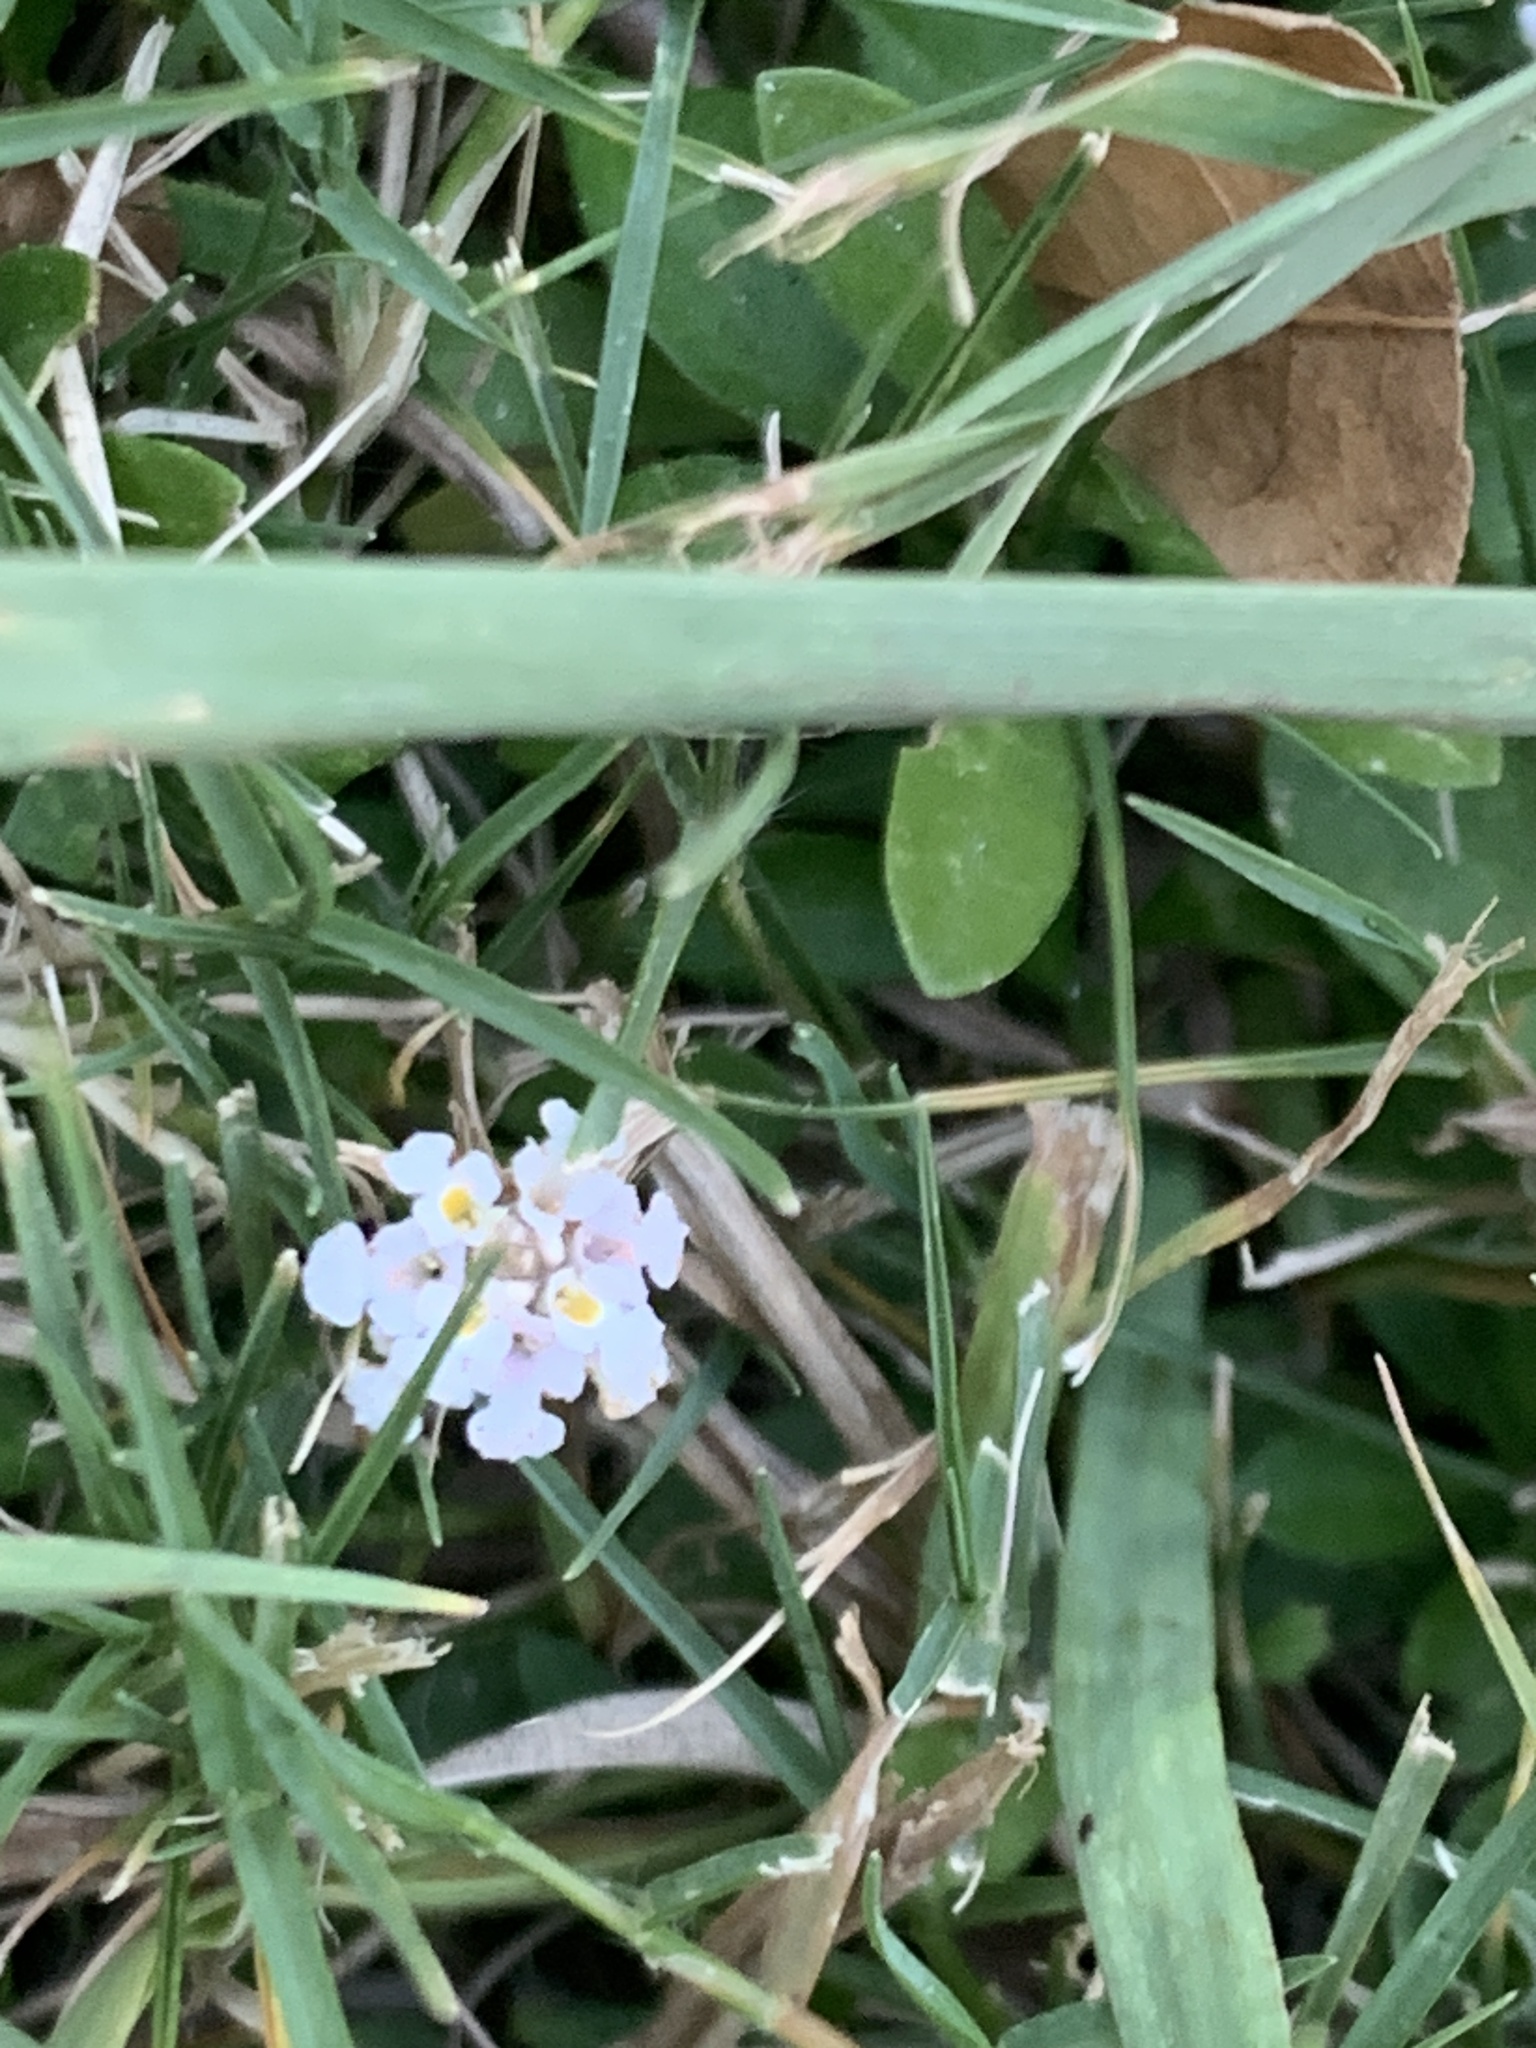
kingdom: Plantae
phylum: Tracheophyta
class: Magnoliopsida
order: Lamiales
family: Verbenaceae
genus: Phyla
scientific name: Phyla nodiflora
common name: Frogfruit
